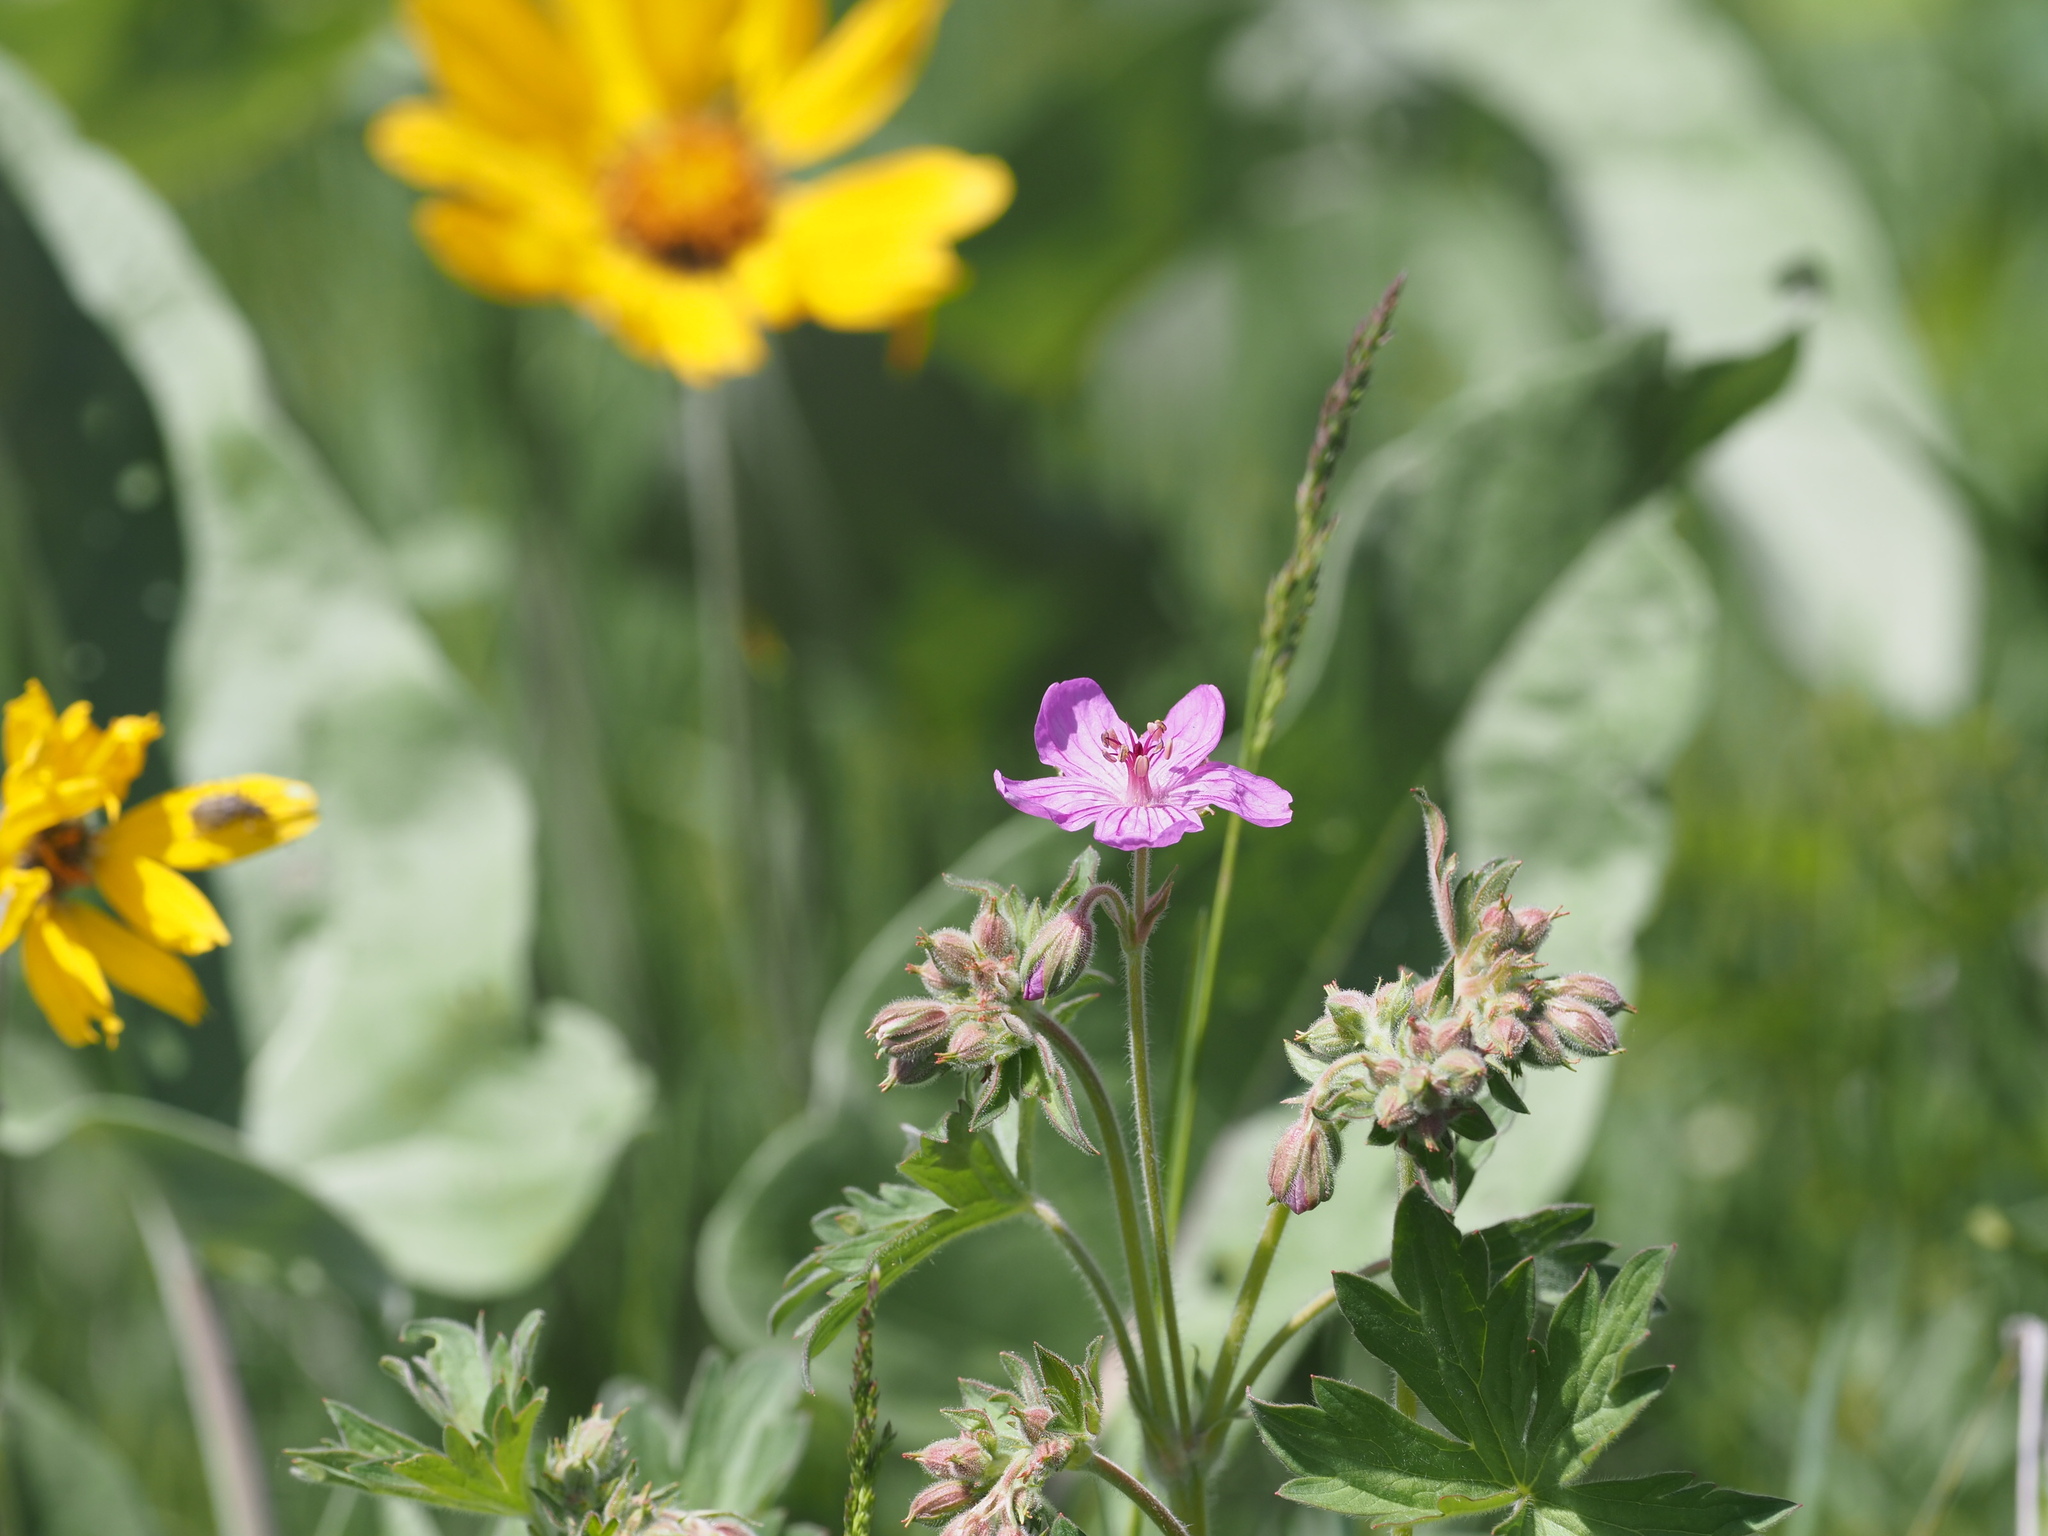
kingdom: Plantae
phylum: Tracheophyta
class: Magnoliopsida
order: Asterales
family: Asteraceae
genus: Wyethia
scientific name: Wyethia sagittata
